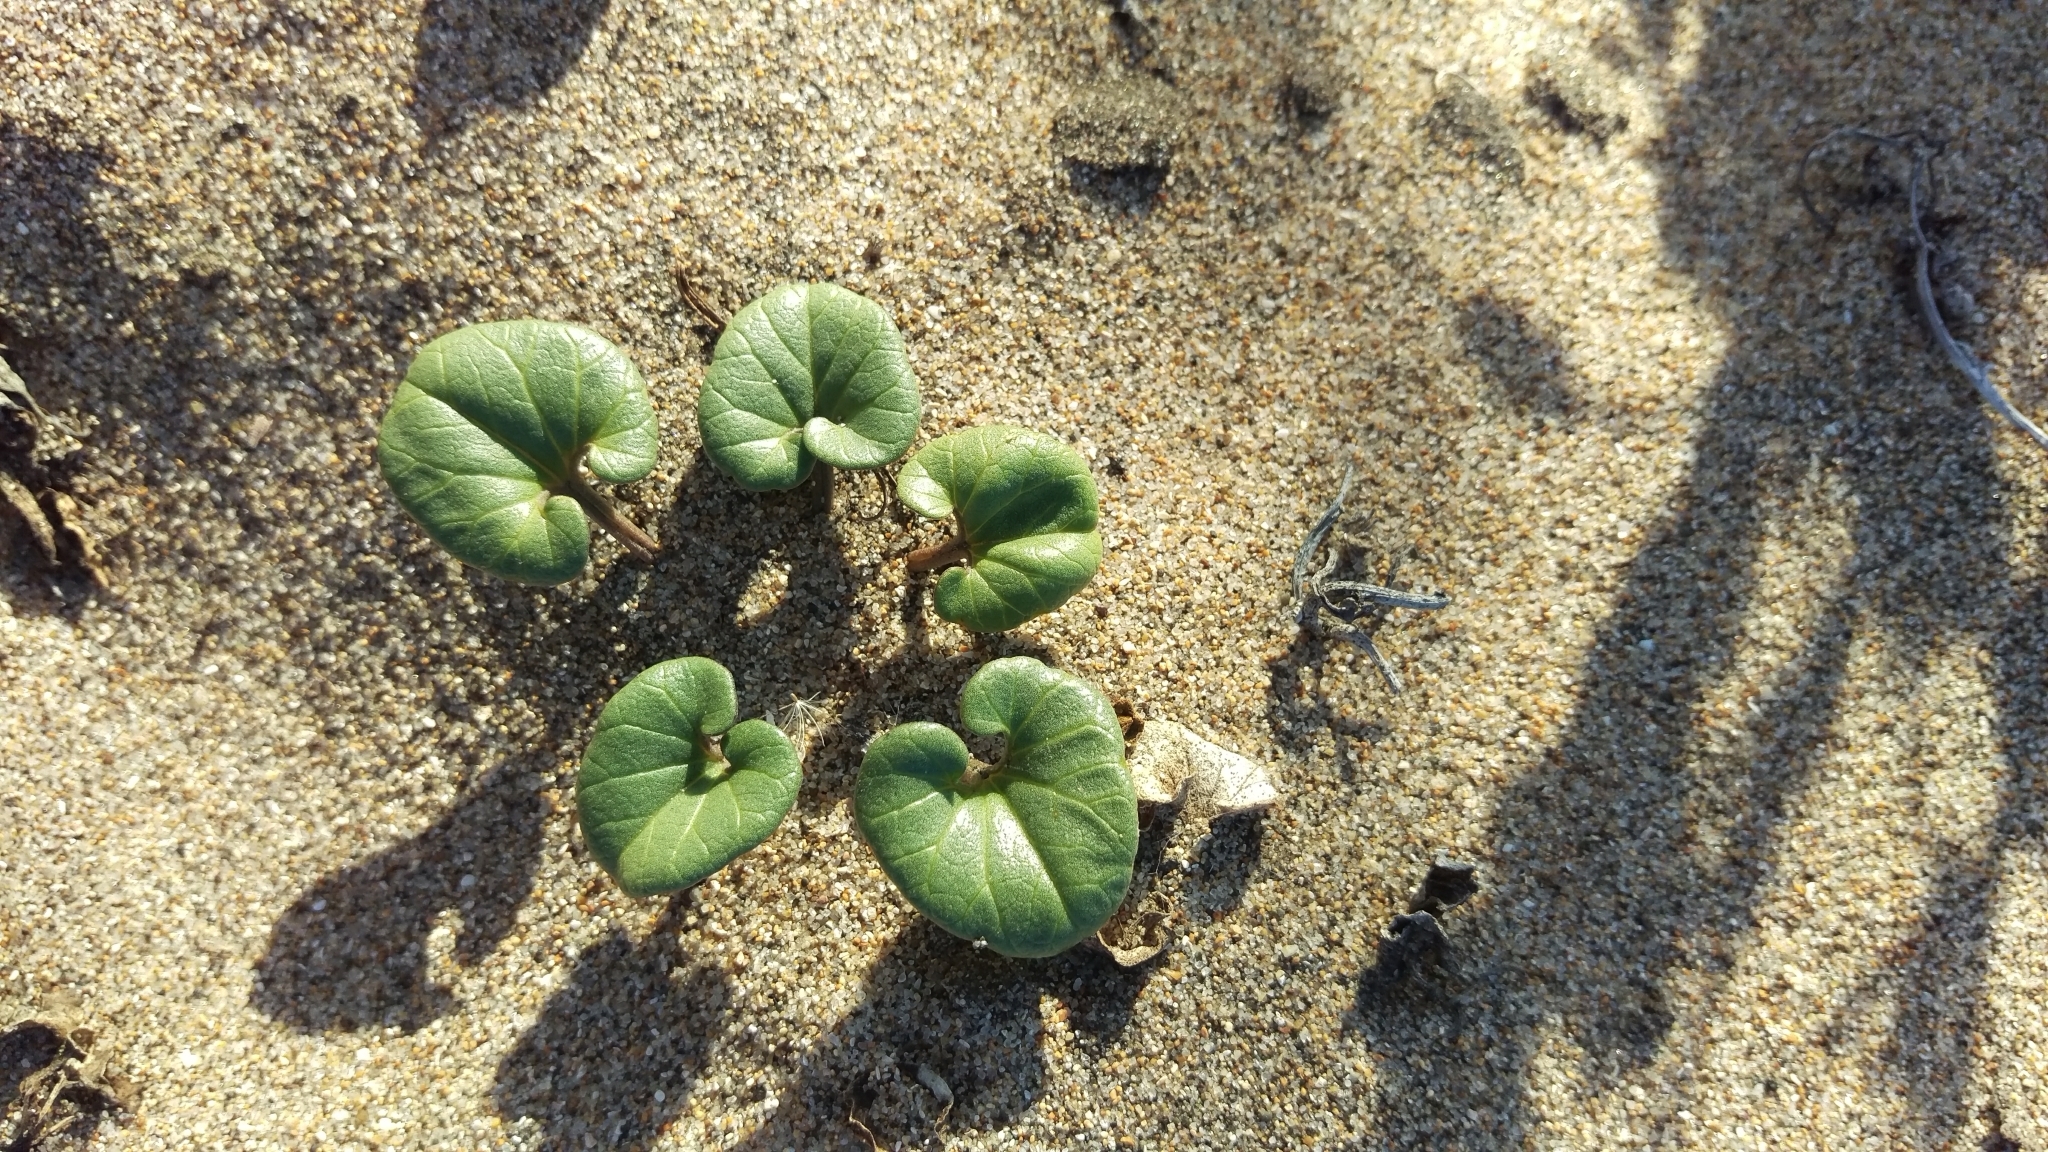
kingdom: Plantae
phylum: Tracheophyta
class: Magnoliopsida
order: Solanales
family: Convolvulaceae
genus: Calystegia
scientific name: Calystegia soldanella
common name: Sea bindweed
